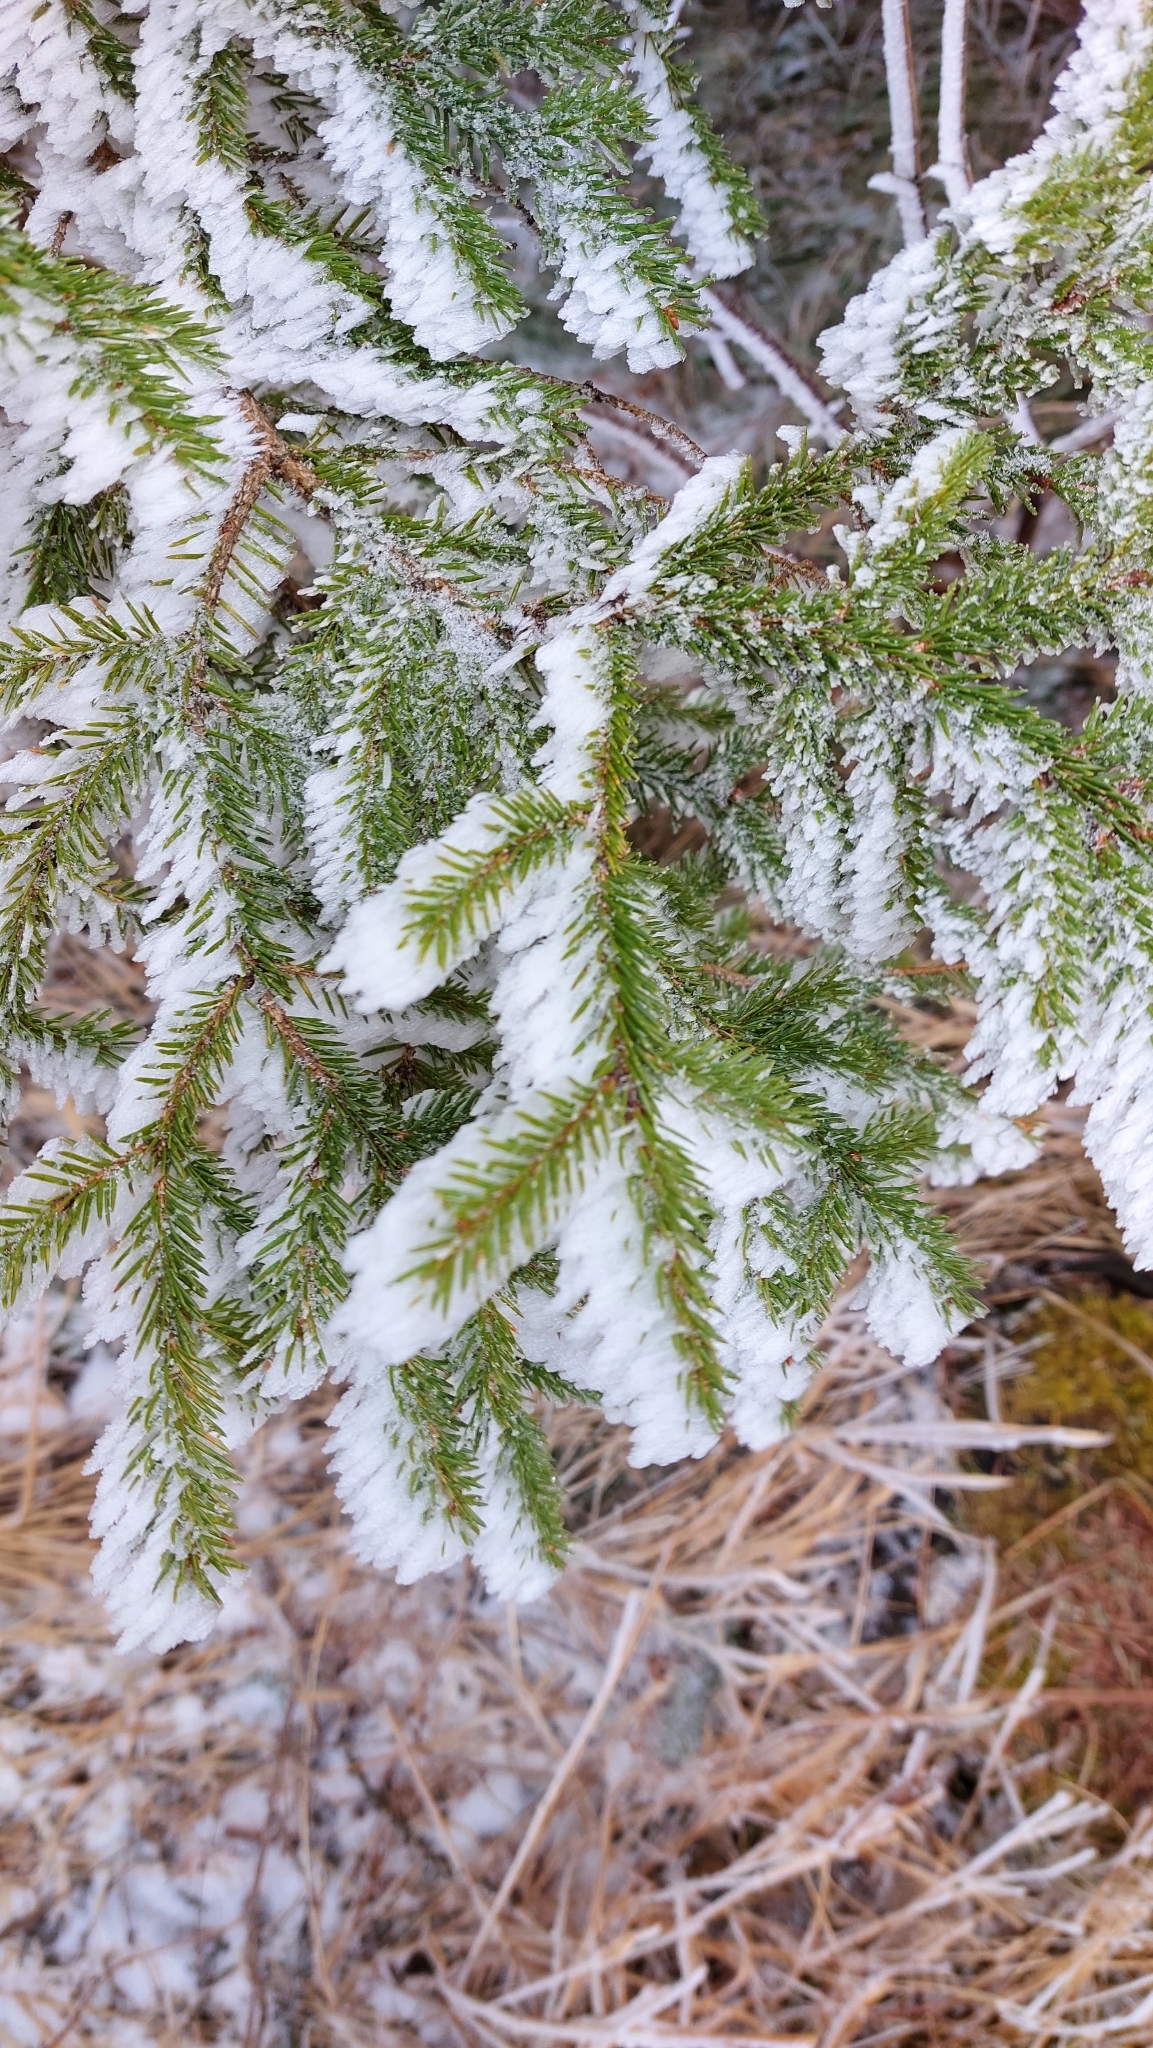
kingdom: Plantae
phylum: Tracheophyta
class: Pinopsida
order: Pinales
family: Pinaceae
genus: Picea
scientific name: Picea abies
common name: Norway spruce
